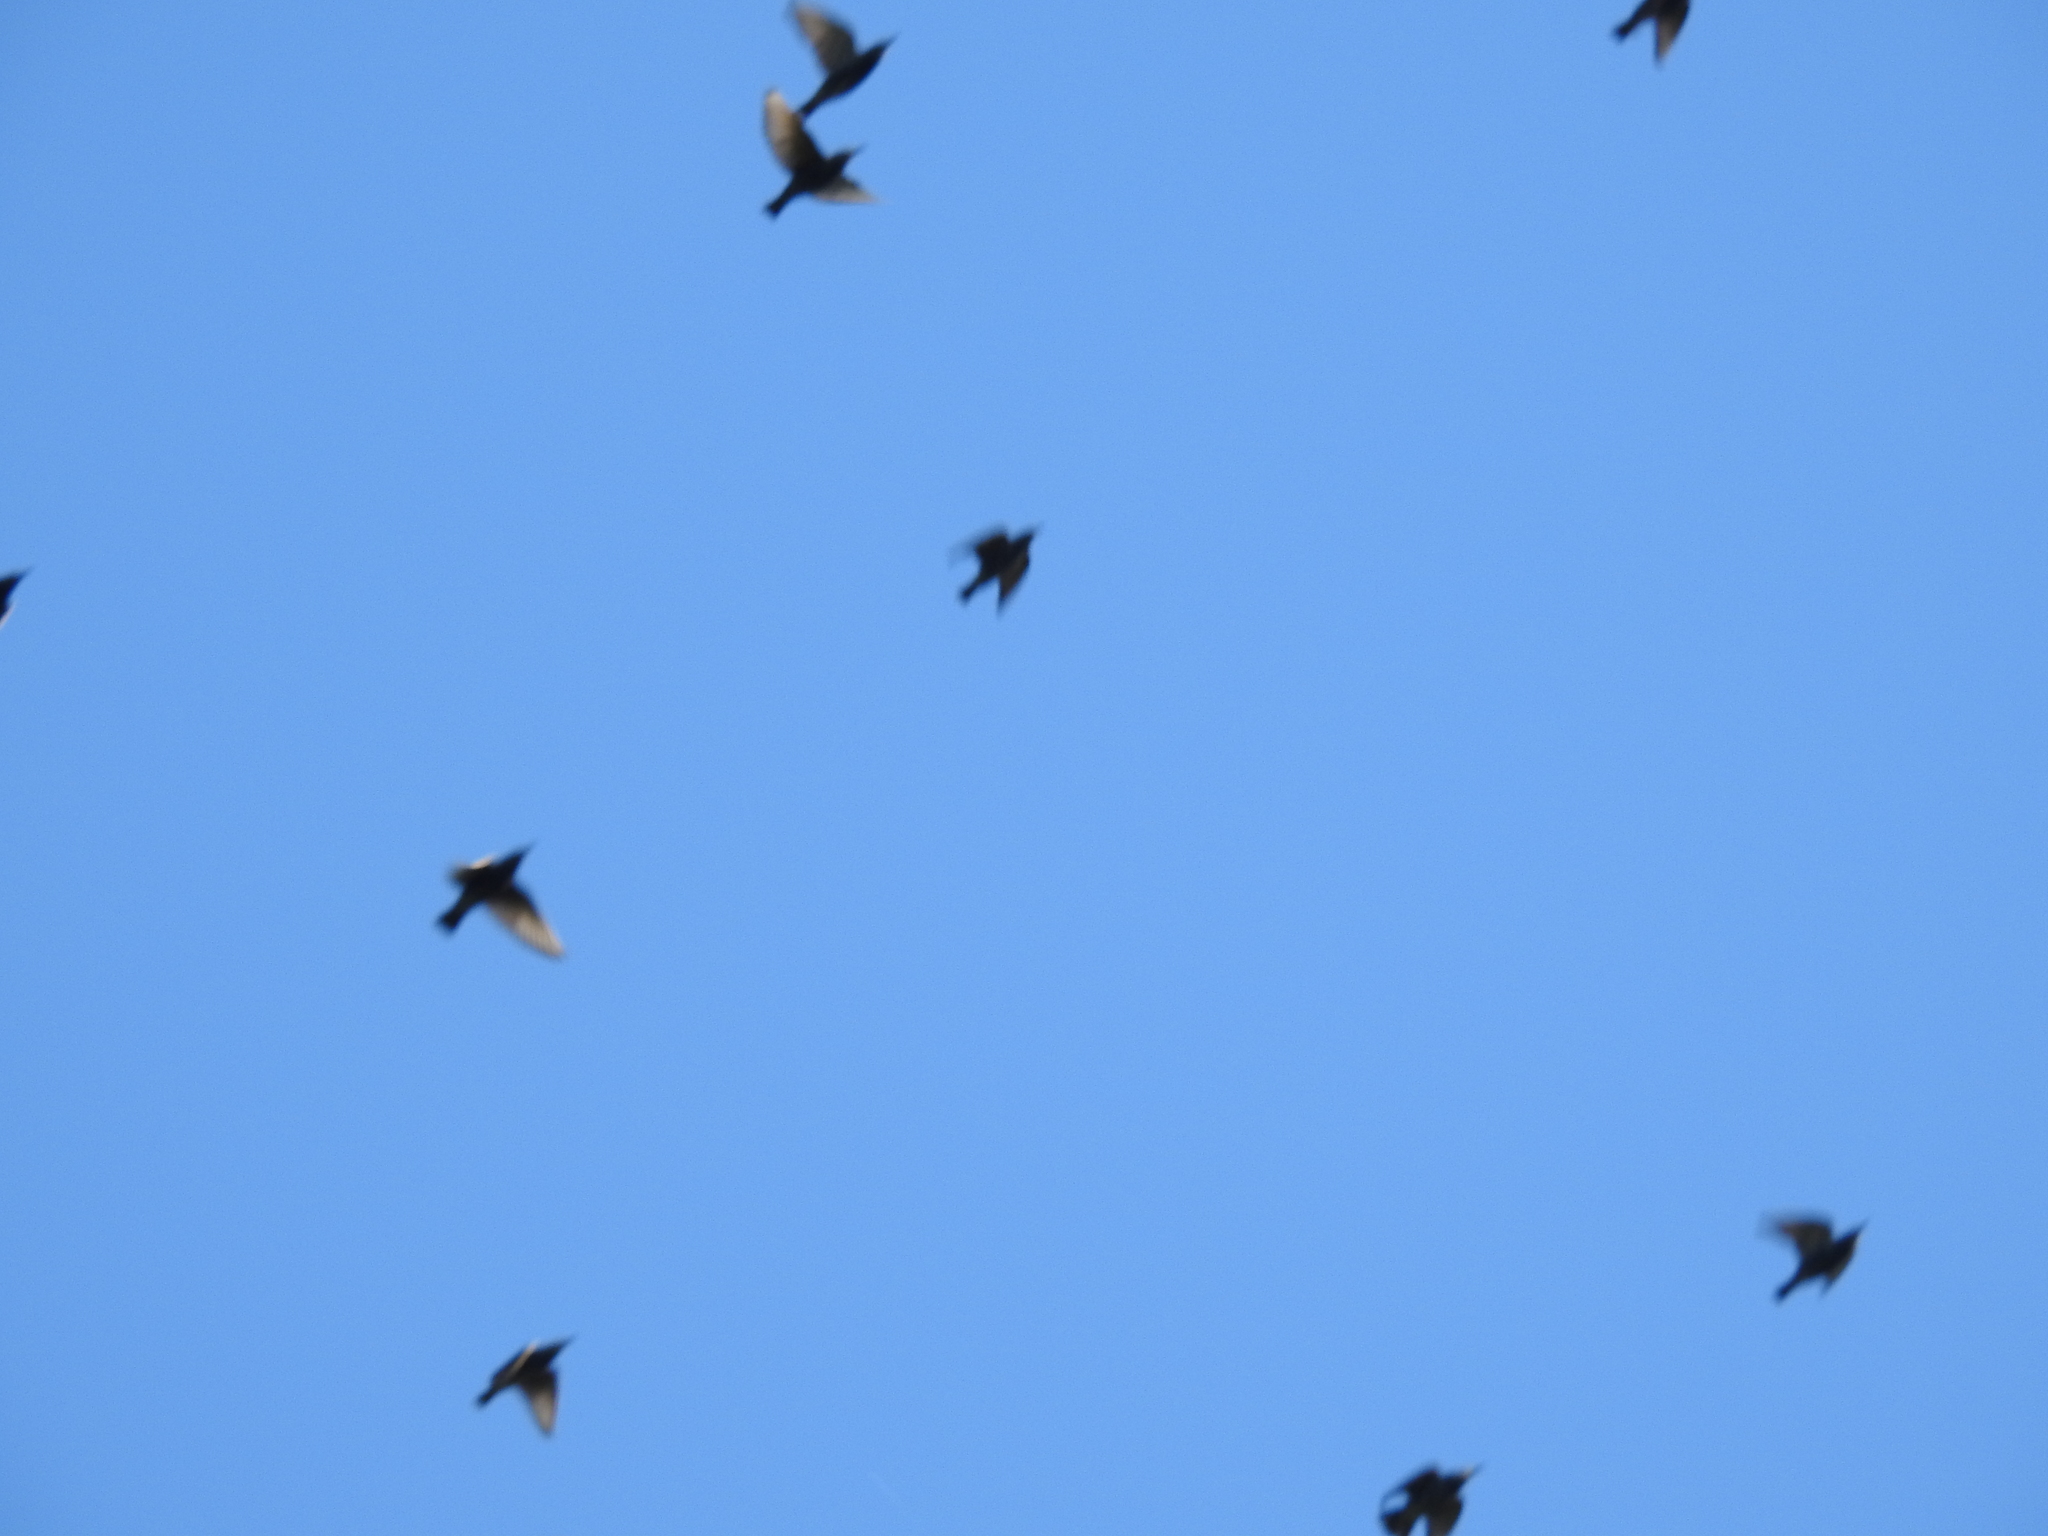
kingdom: Animalia
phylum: Chordata
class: Aves
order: Passeriformes
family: Sturnidae
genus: Sturnus
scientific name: Sturnus vulgaris
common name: Common starling
